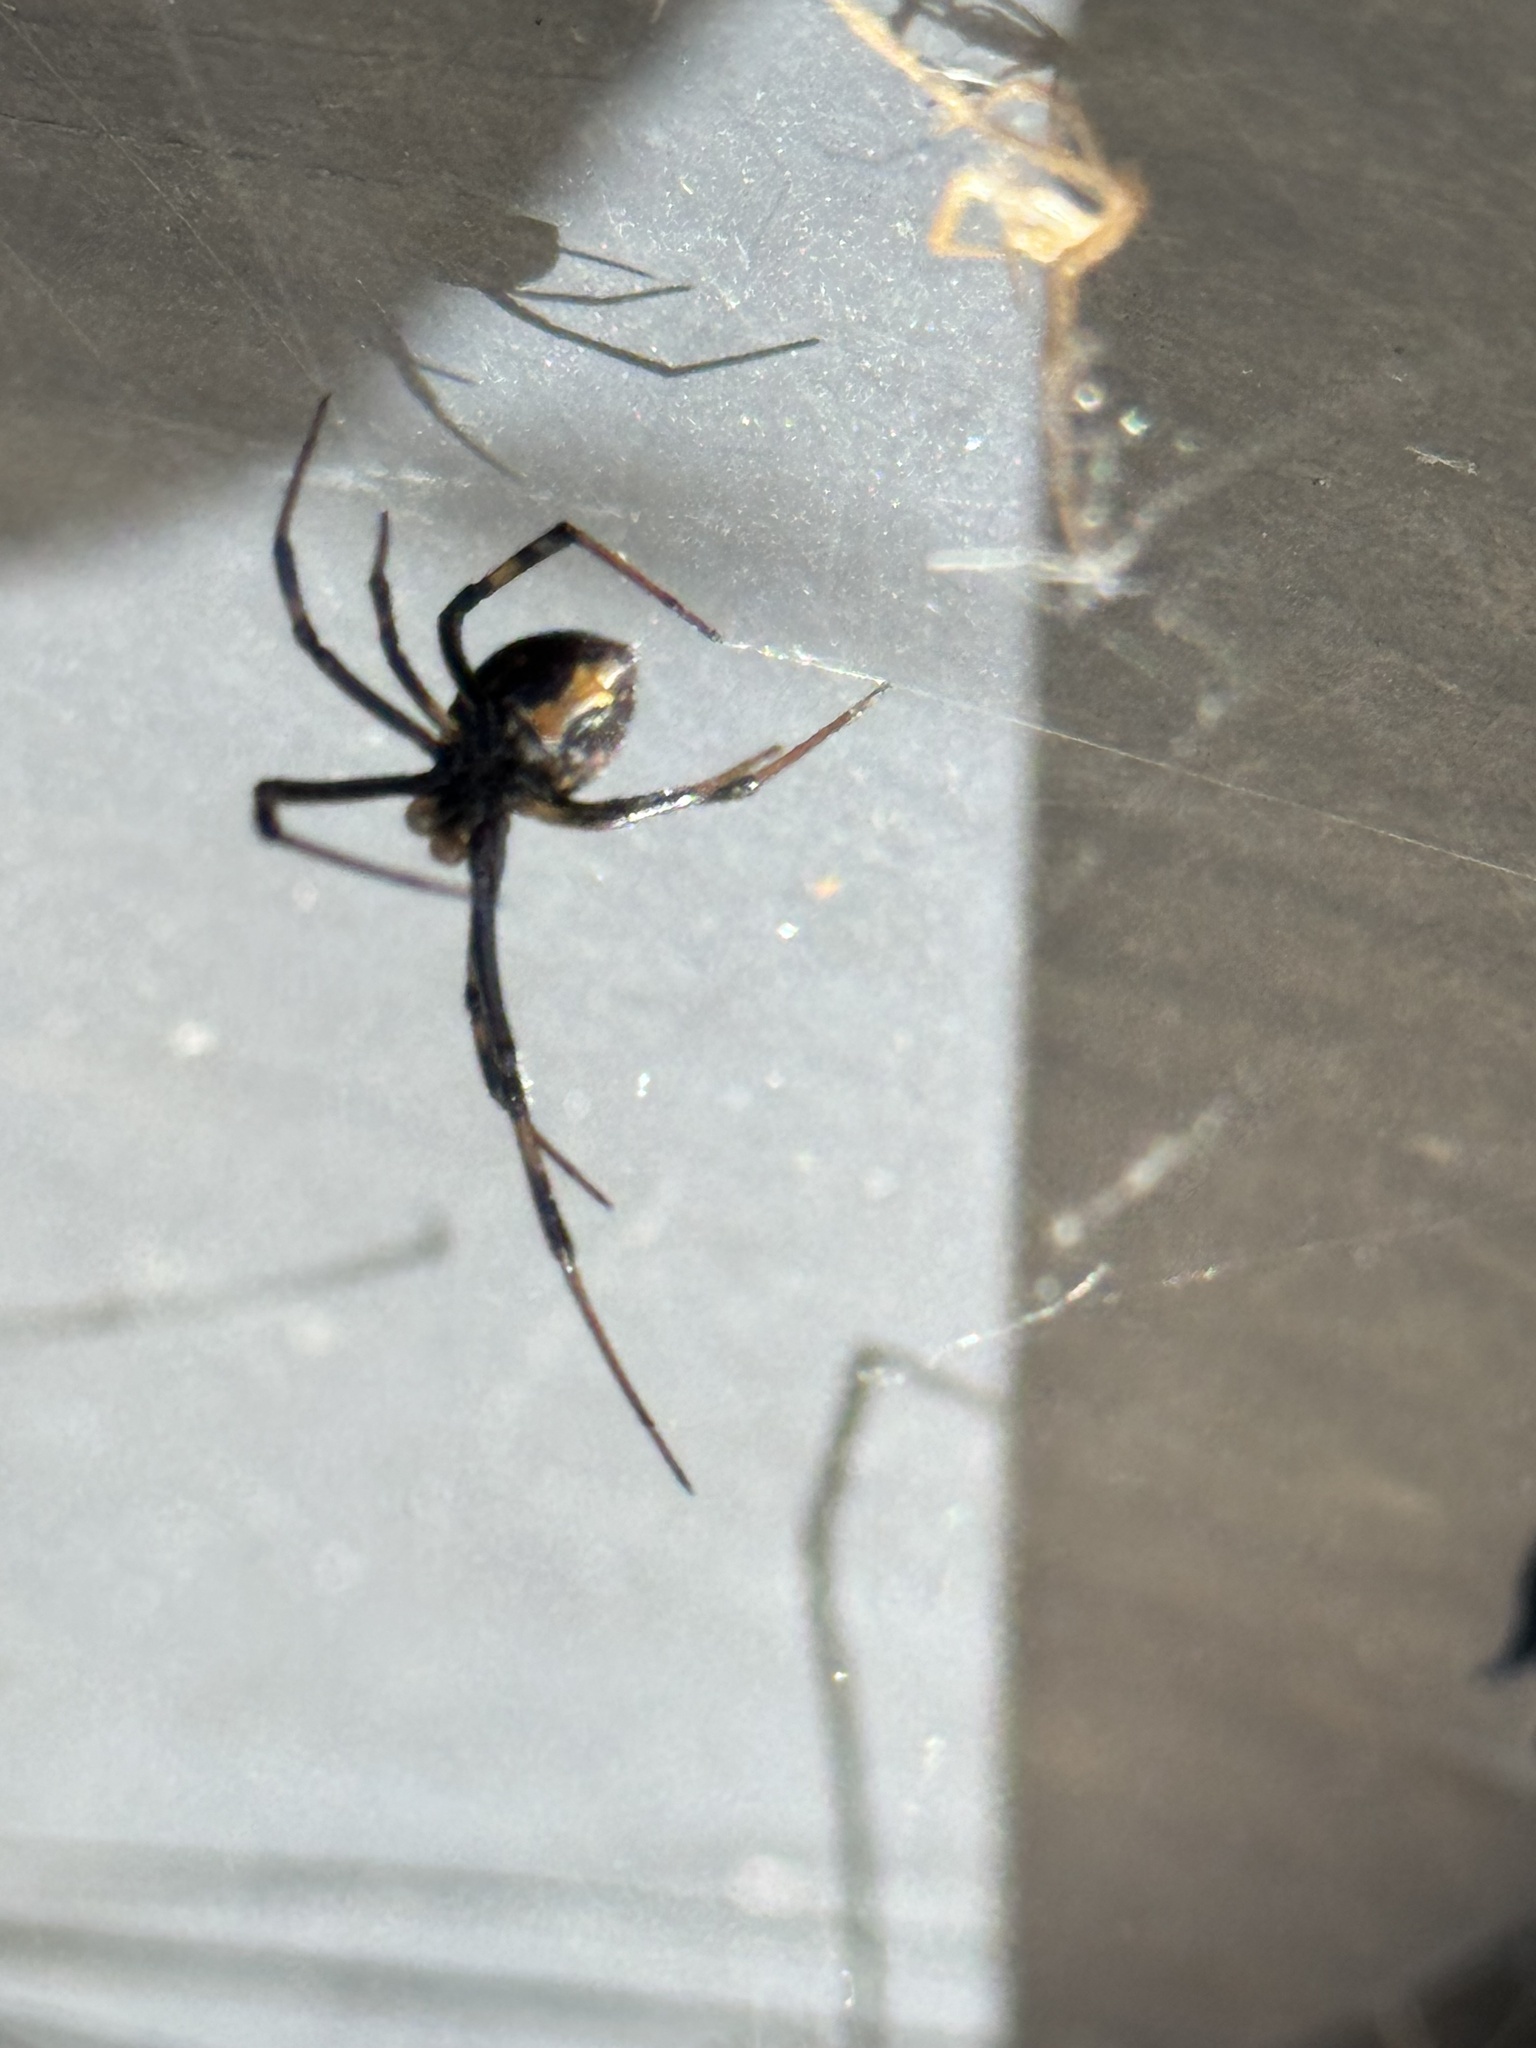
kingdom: Animalia
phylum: Arthropoda
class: Arachnida
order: Araneae
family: Theridiidae
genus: Latrodectus
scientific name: Latrodectus hesperus
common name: Western black widow
